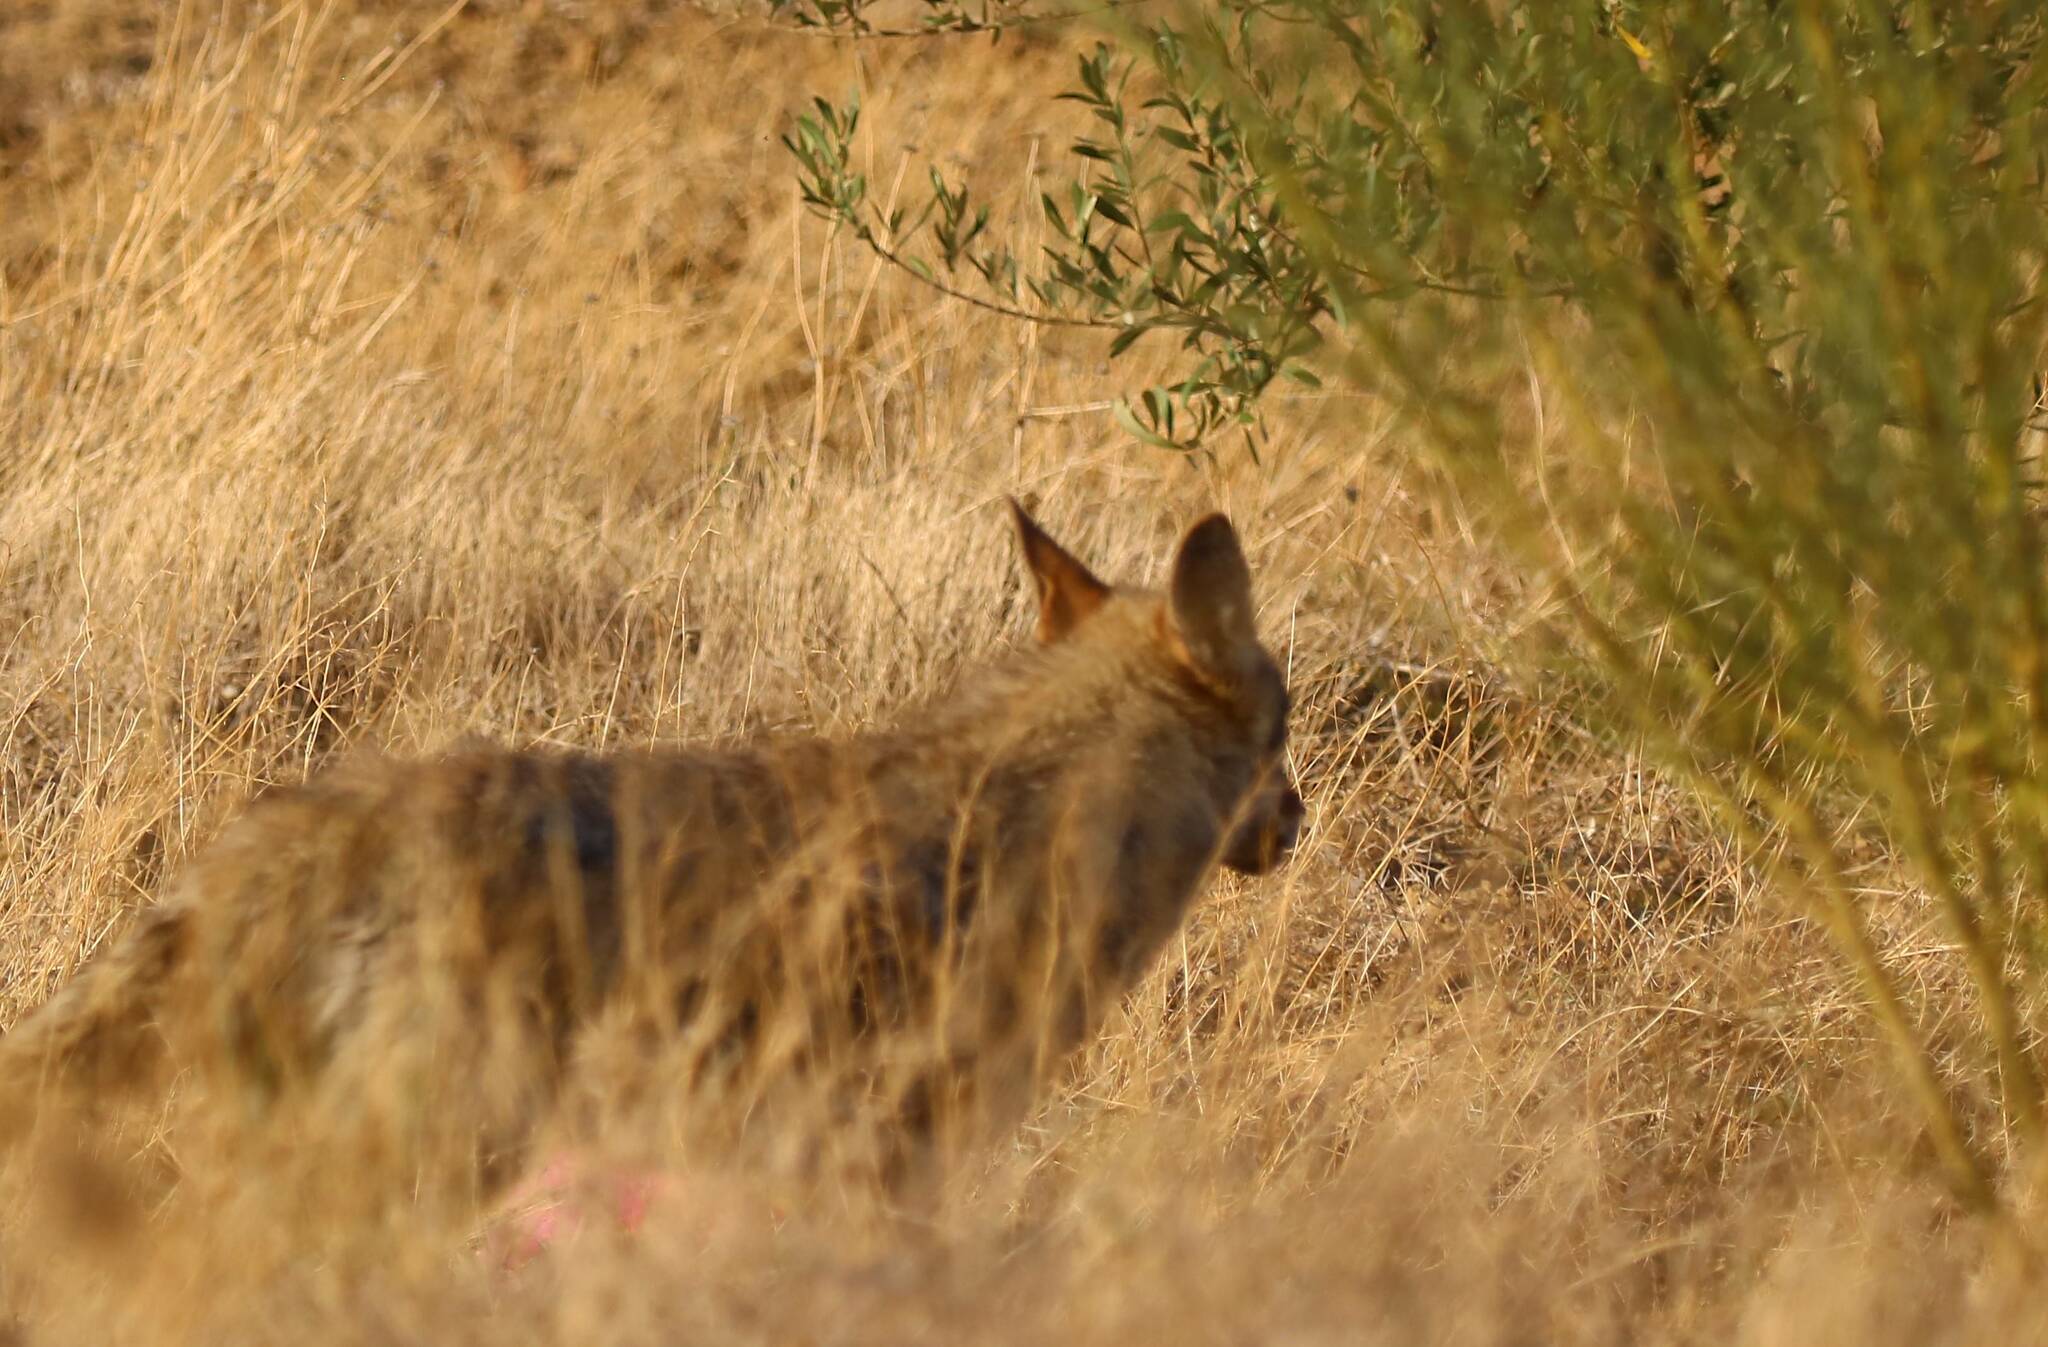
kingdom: Animalia
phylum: Chordata
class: Mammalia
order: Carnivora
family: Canidae
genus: Canis
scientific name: Canis lupaster
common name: African golden wolf
